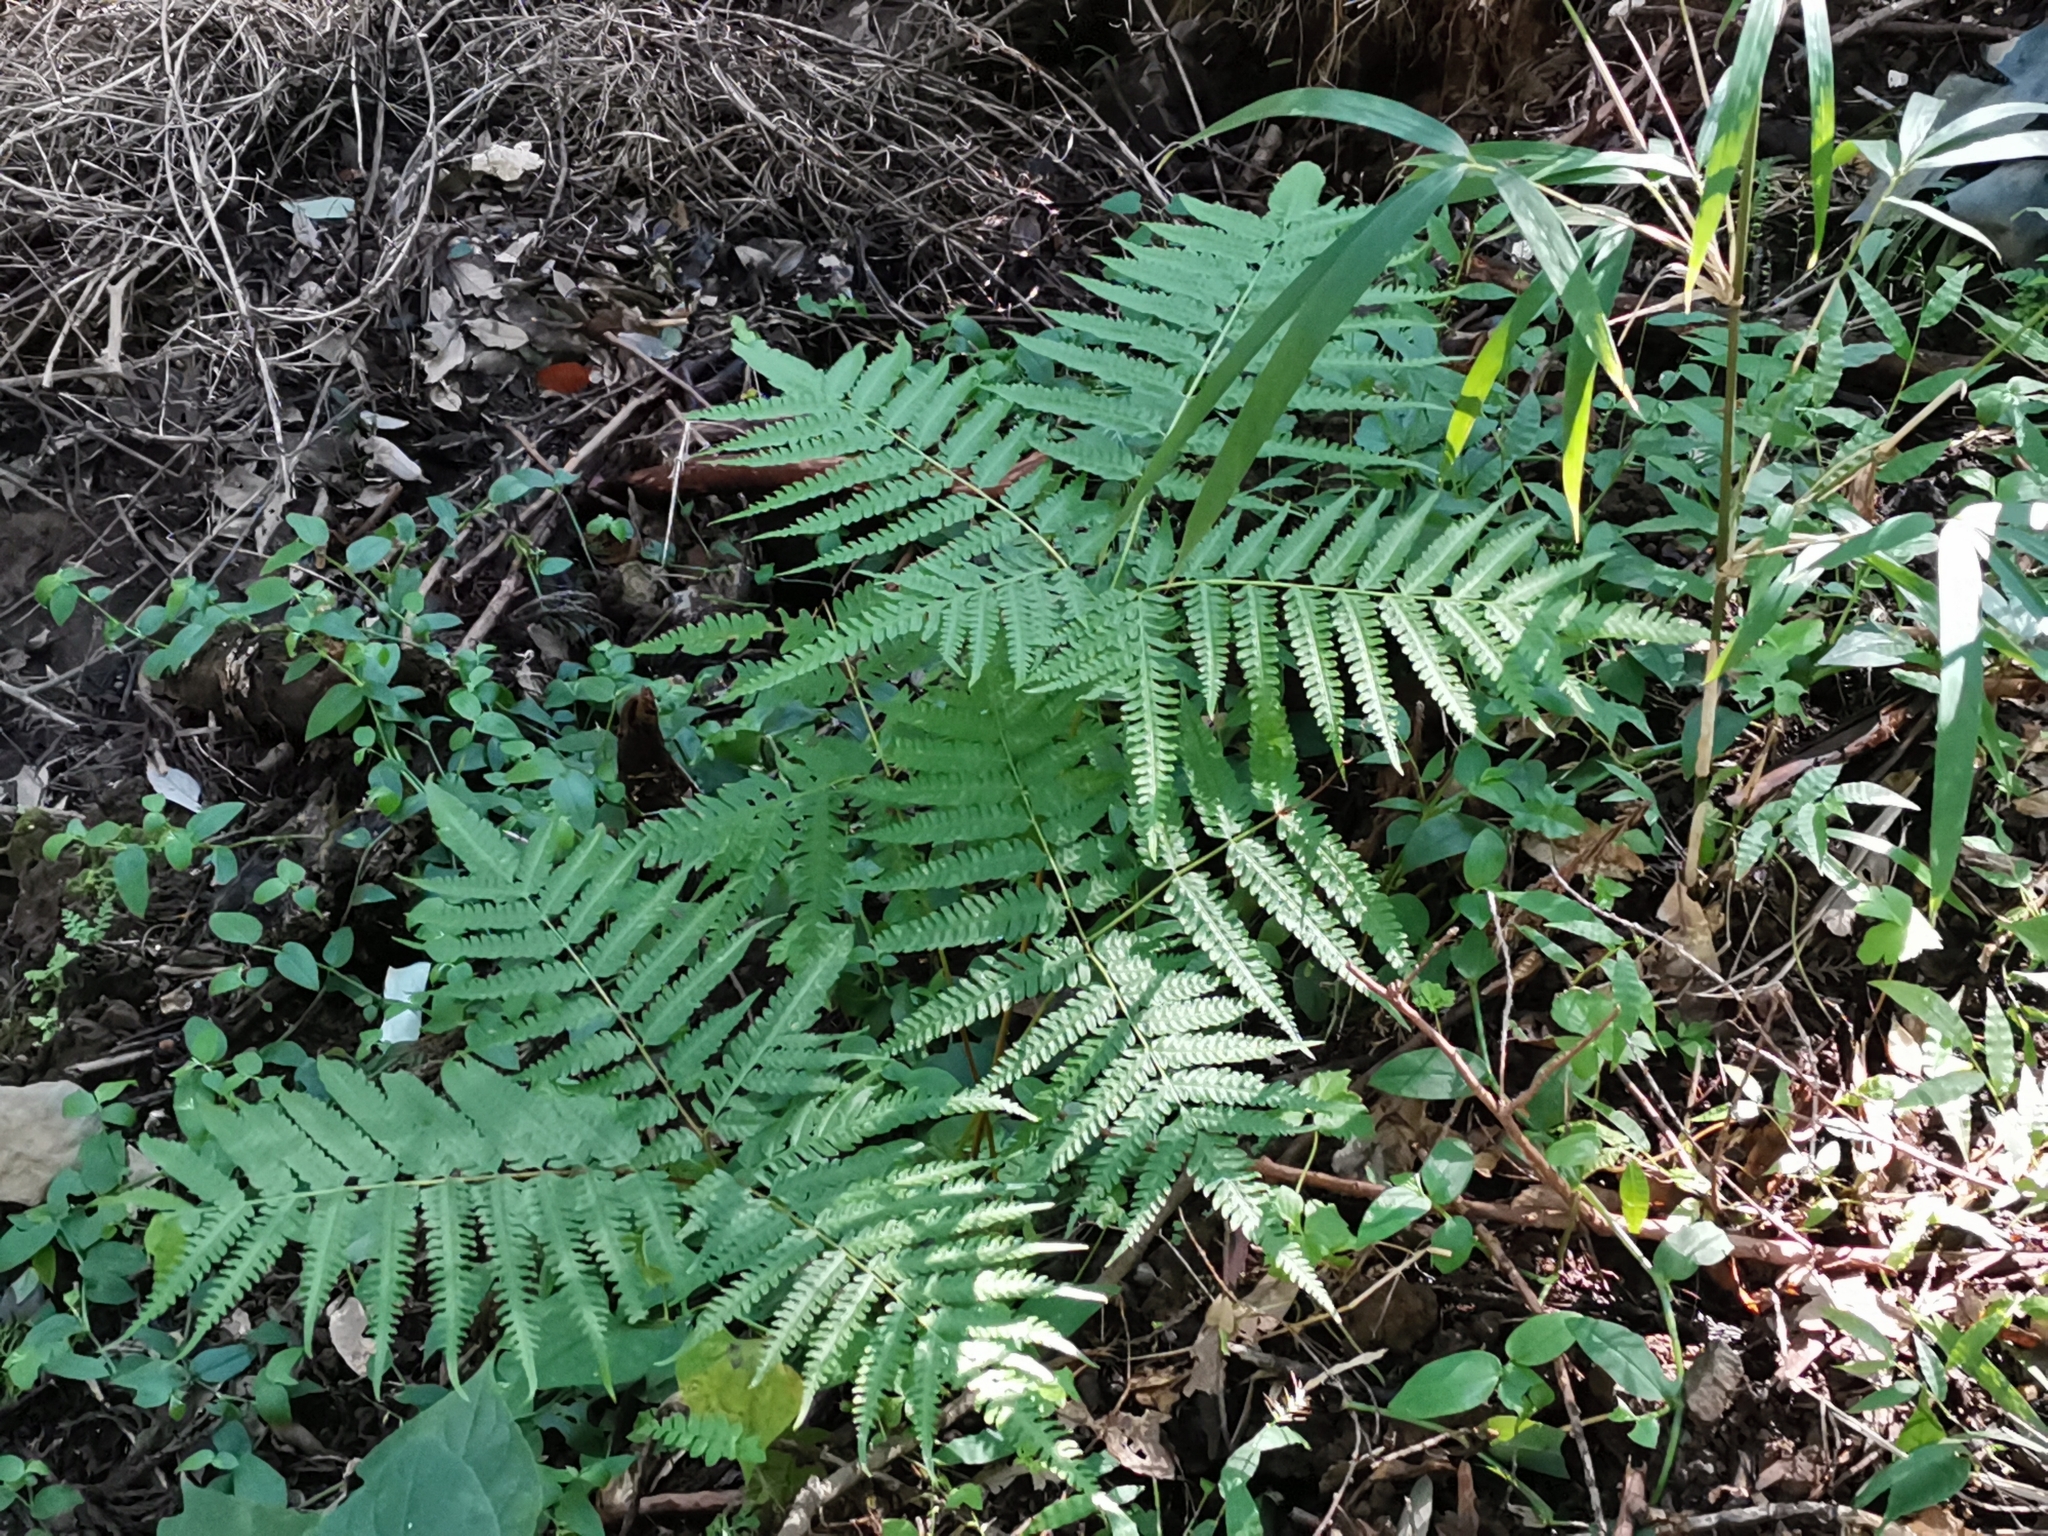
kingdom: Plantae
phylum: Tracheophyta
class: Polypodiopsida
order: Polypodiales
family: Pteridaceae
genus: Pteris
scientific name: Pteris wallichiana
